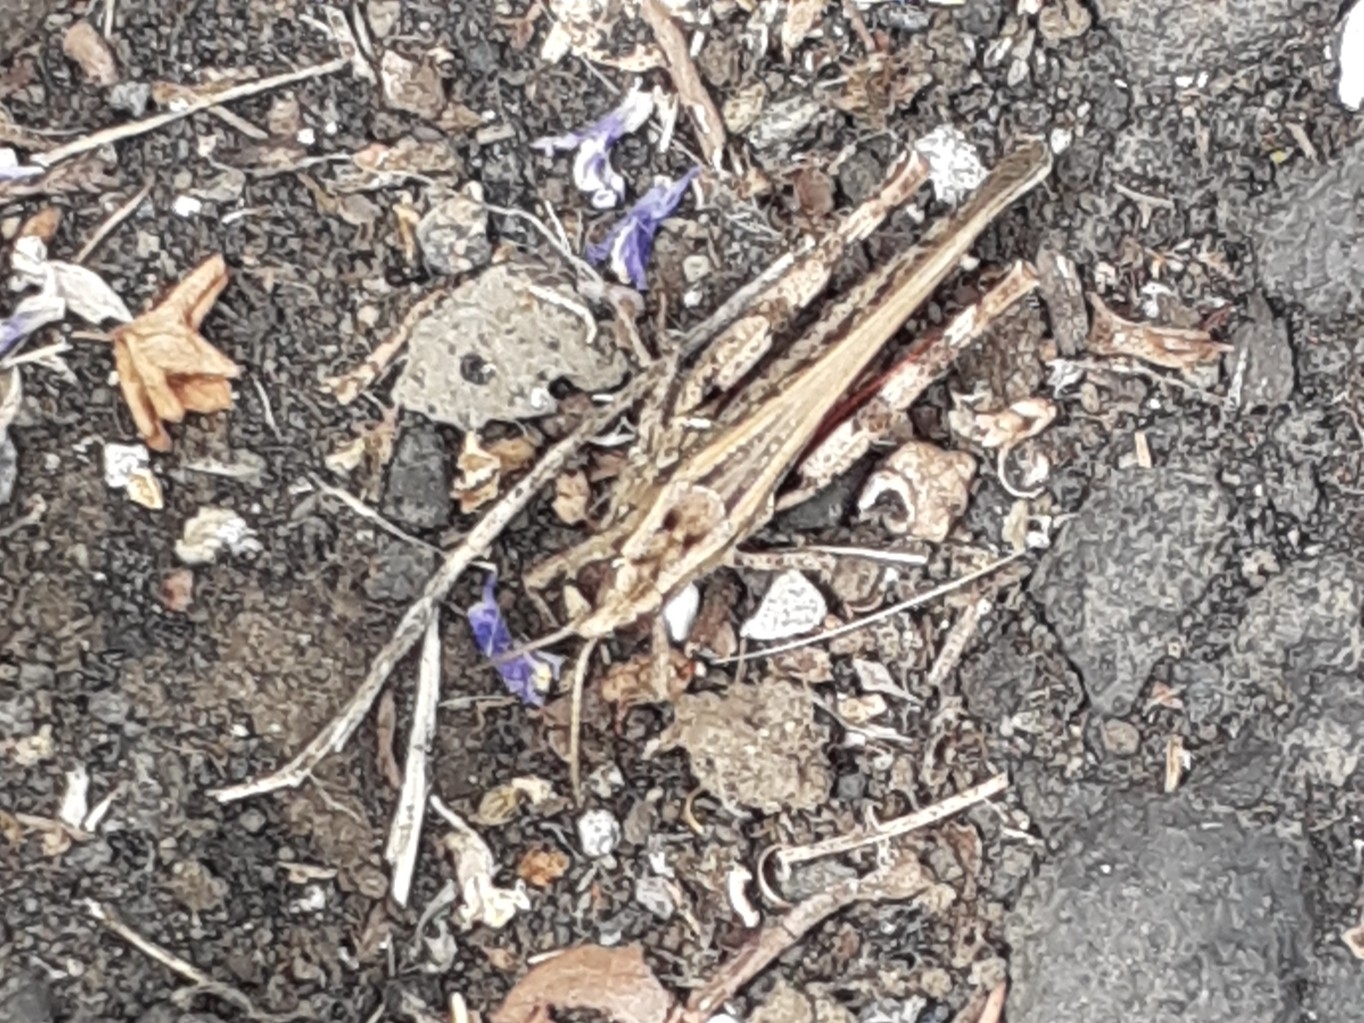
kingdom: Animalia
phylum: Arthropoda
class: Insecta
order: Orthoptera
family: Acrididae
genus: Calliptamus
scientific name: Calliptamus plebeius
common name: Canarian pincer grasshopper
